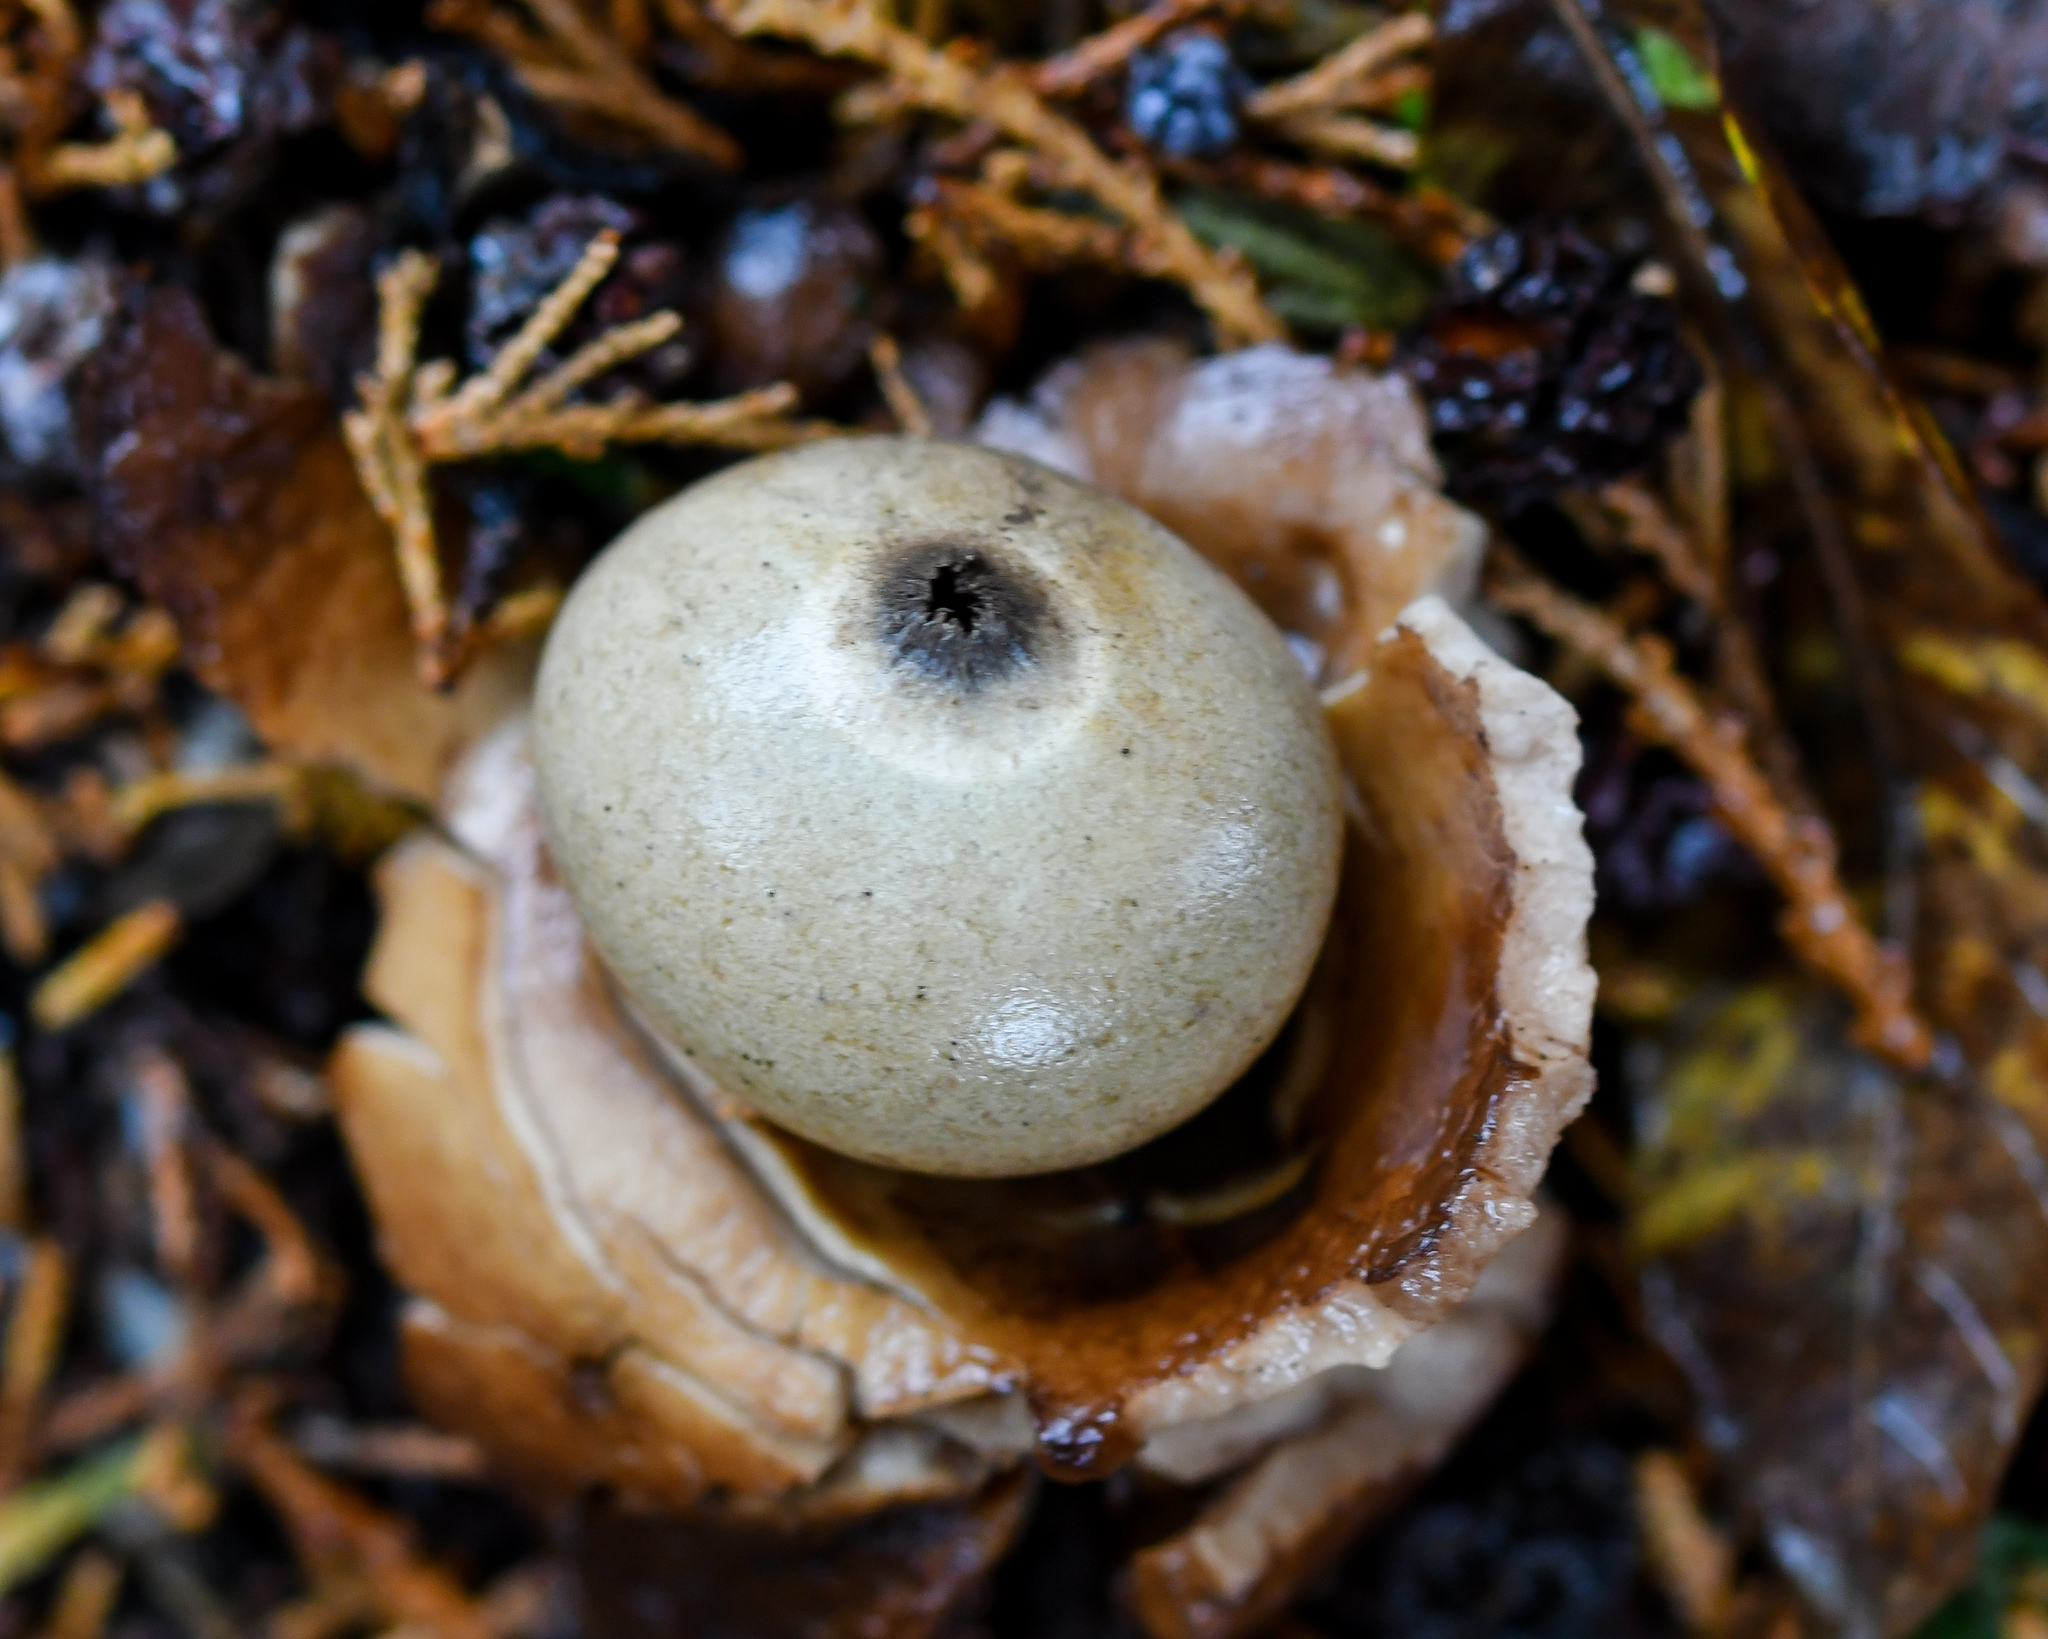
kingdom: Fungi
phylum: Basidiomycota
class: Agaricomycetes
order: Geastrales
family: Geastraceae
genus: Geastrum
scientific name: Geastrum triplex
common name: Collared earthstar
